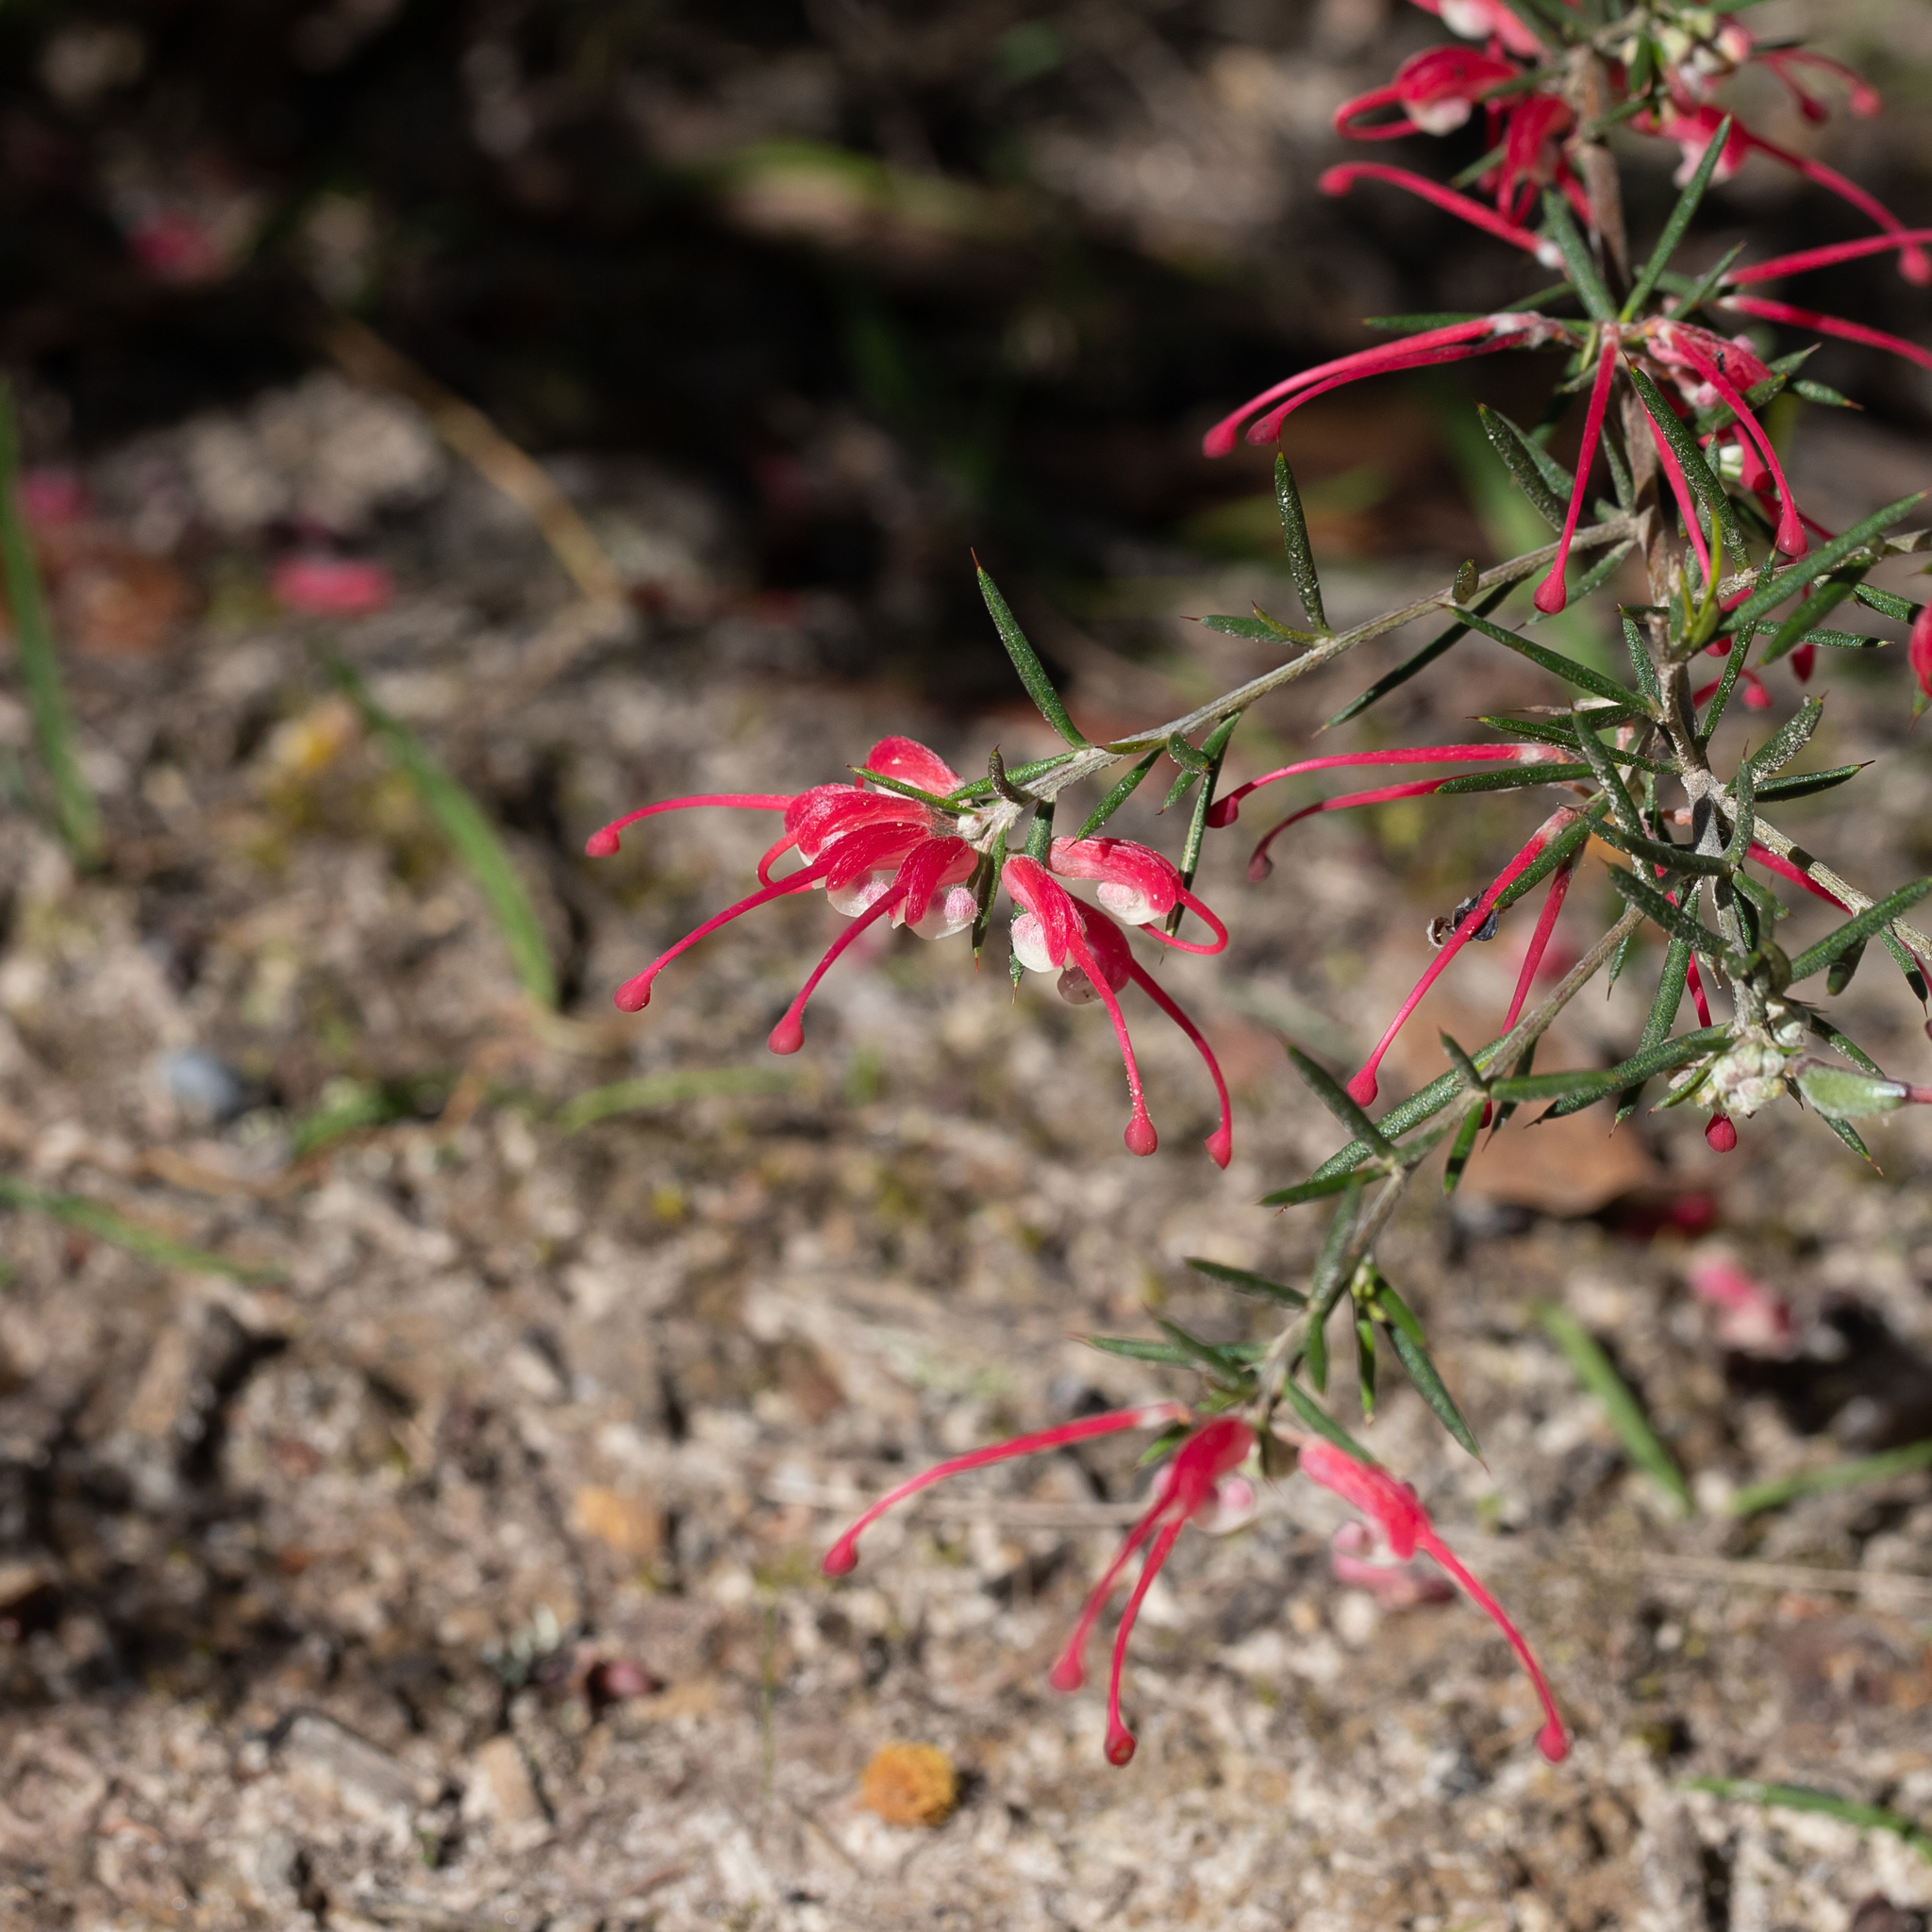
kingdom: Plantae
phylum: Tracheophyta
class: Magnoliopsida
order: Proteales
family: Proteaceae
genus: Grevillea
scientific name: Grevillea lavandulacea
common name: Lavender grevillea
